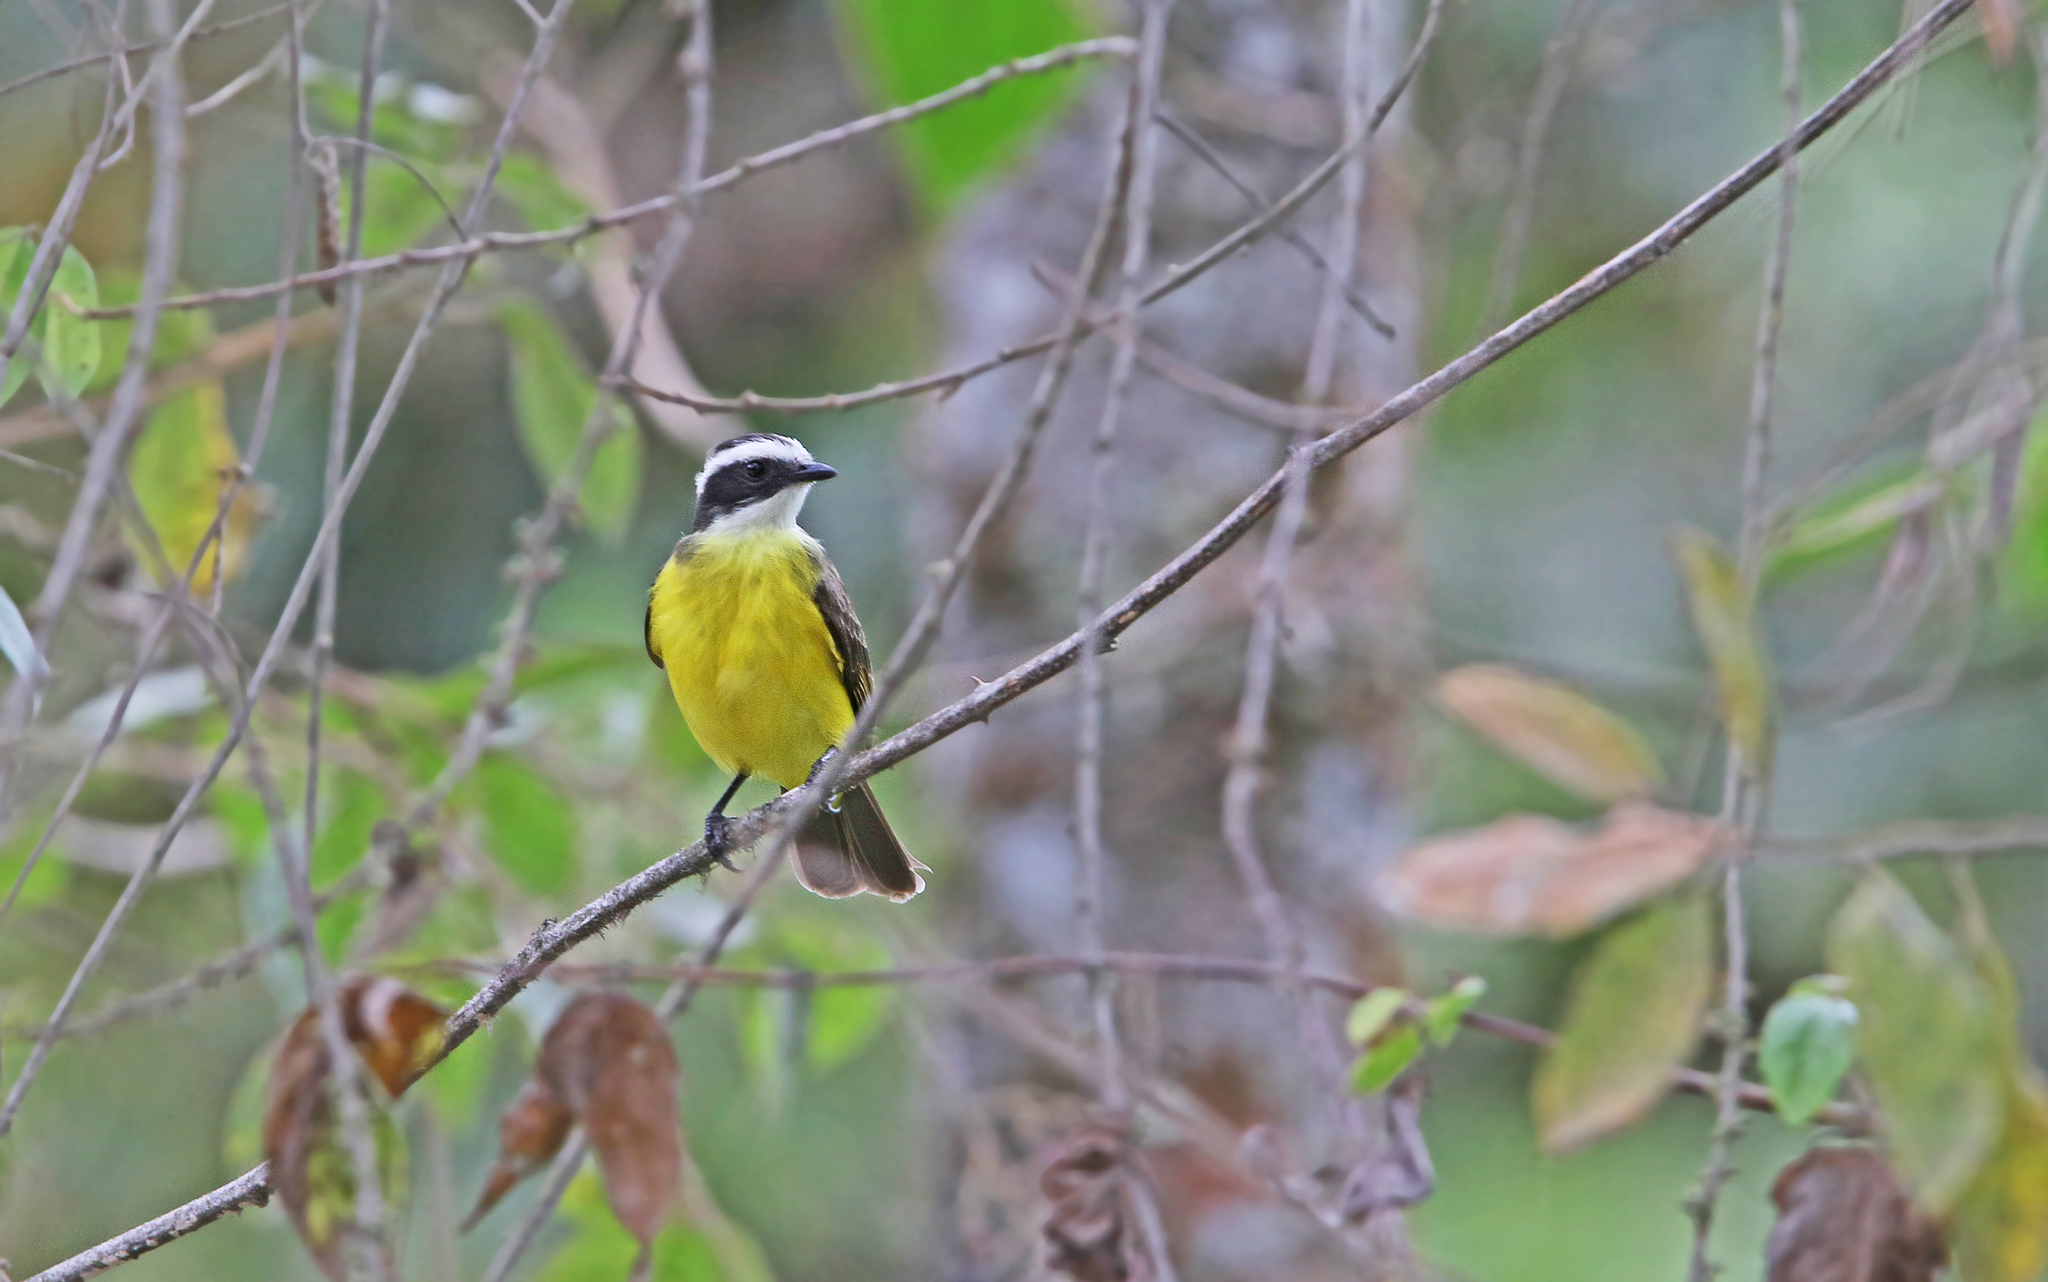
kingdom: Animalia
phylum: Chordata
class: Aves
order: Passeriformes
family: Tyrannidae
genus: Myiozetetes
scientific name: Myiozetetes similis
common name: Social flycatcher
